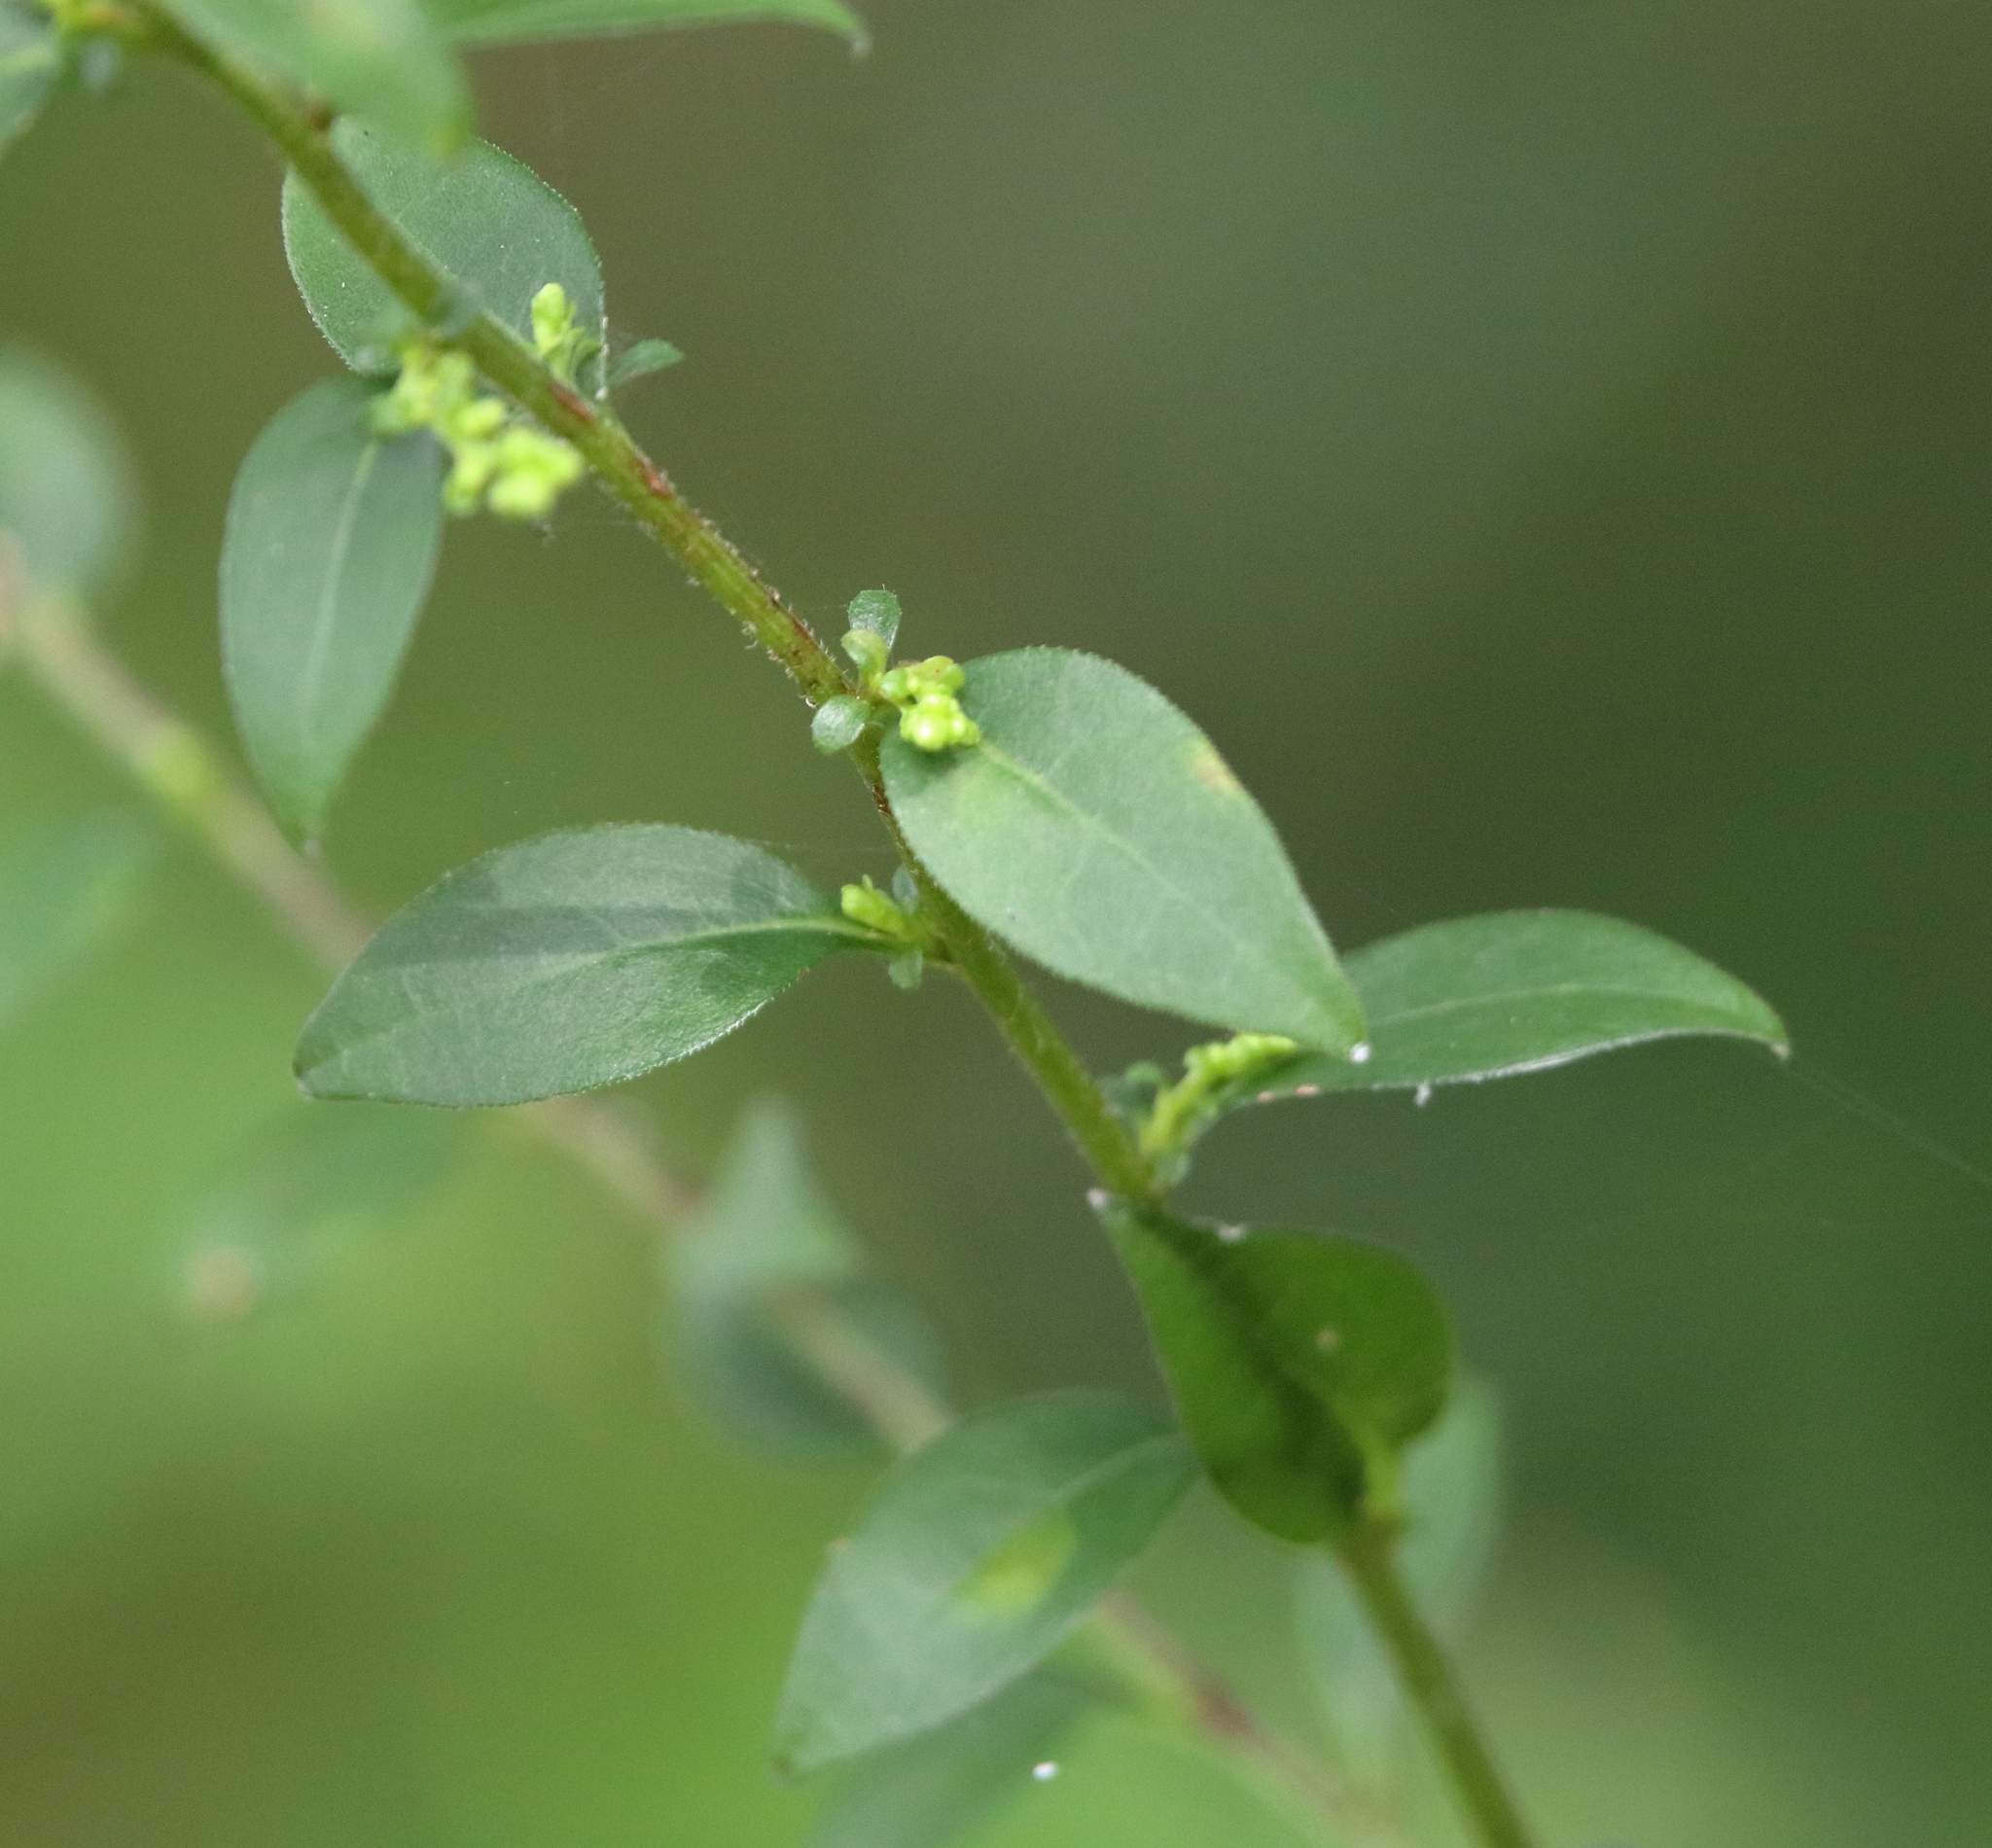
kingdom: Plantae
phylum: Tracheophyta
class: Magnoliopsida
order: Asterales
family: Asteraceae
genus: Solidago
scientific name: Solidago ulmifolia
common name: Elm-leaf goldenrod
